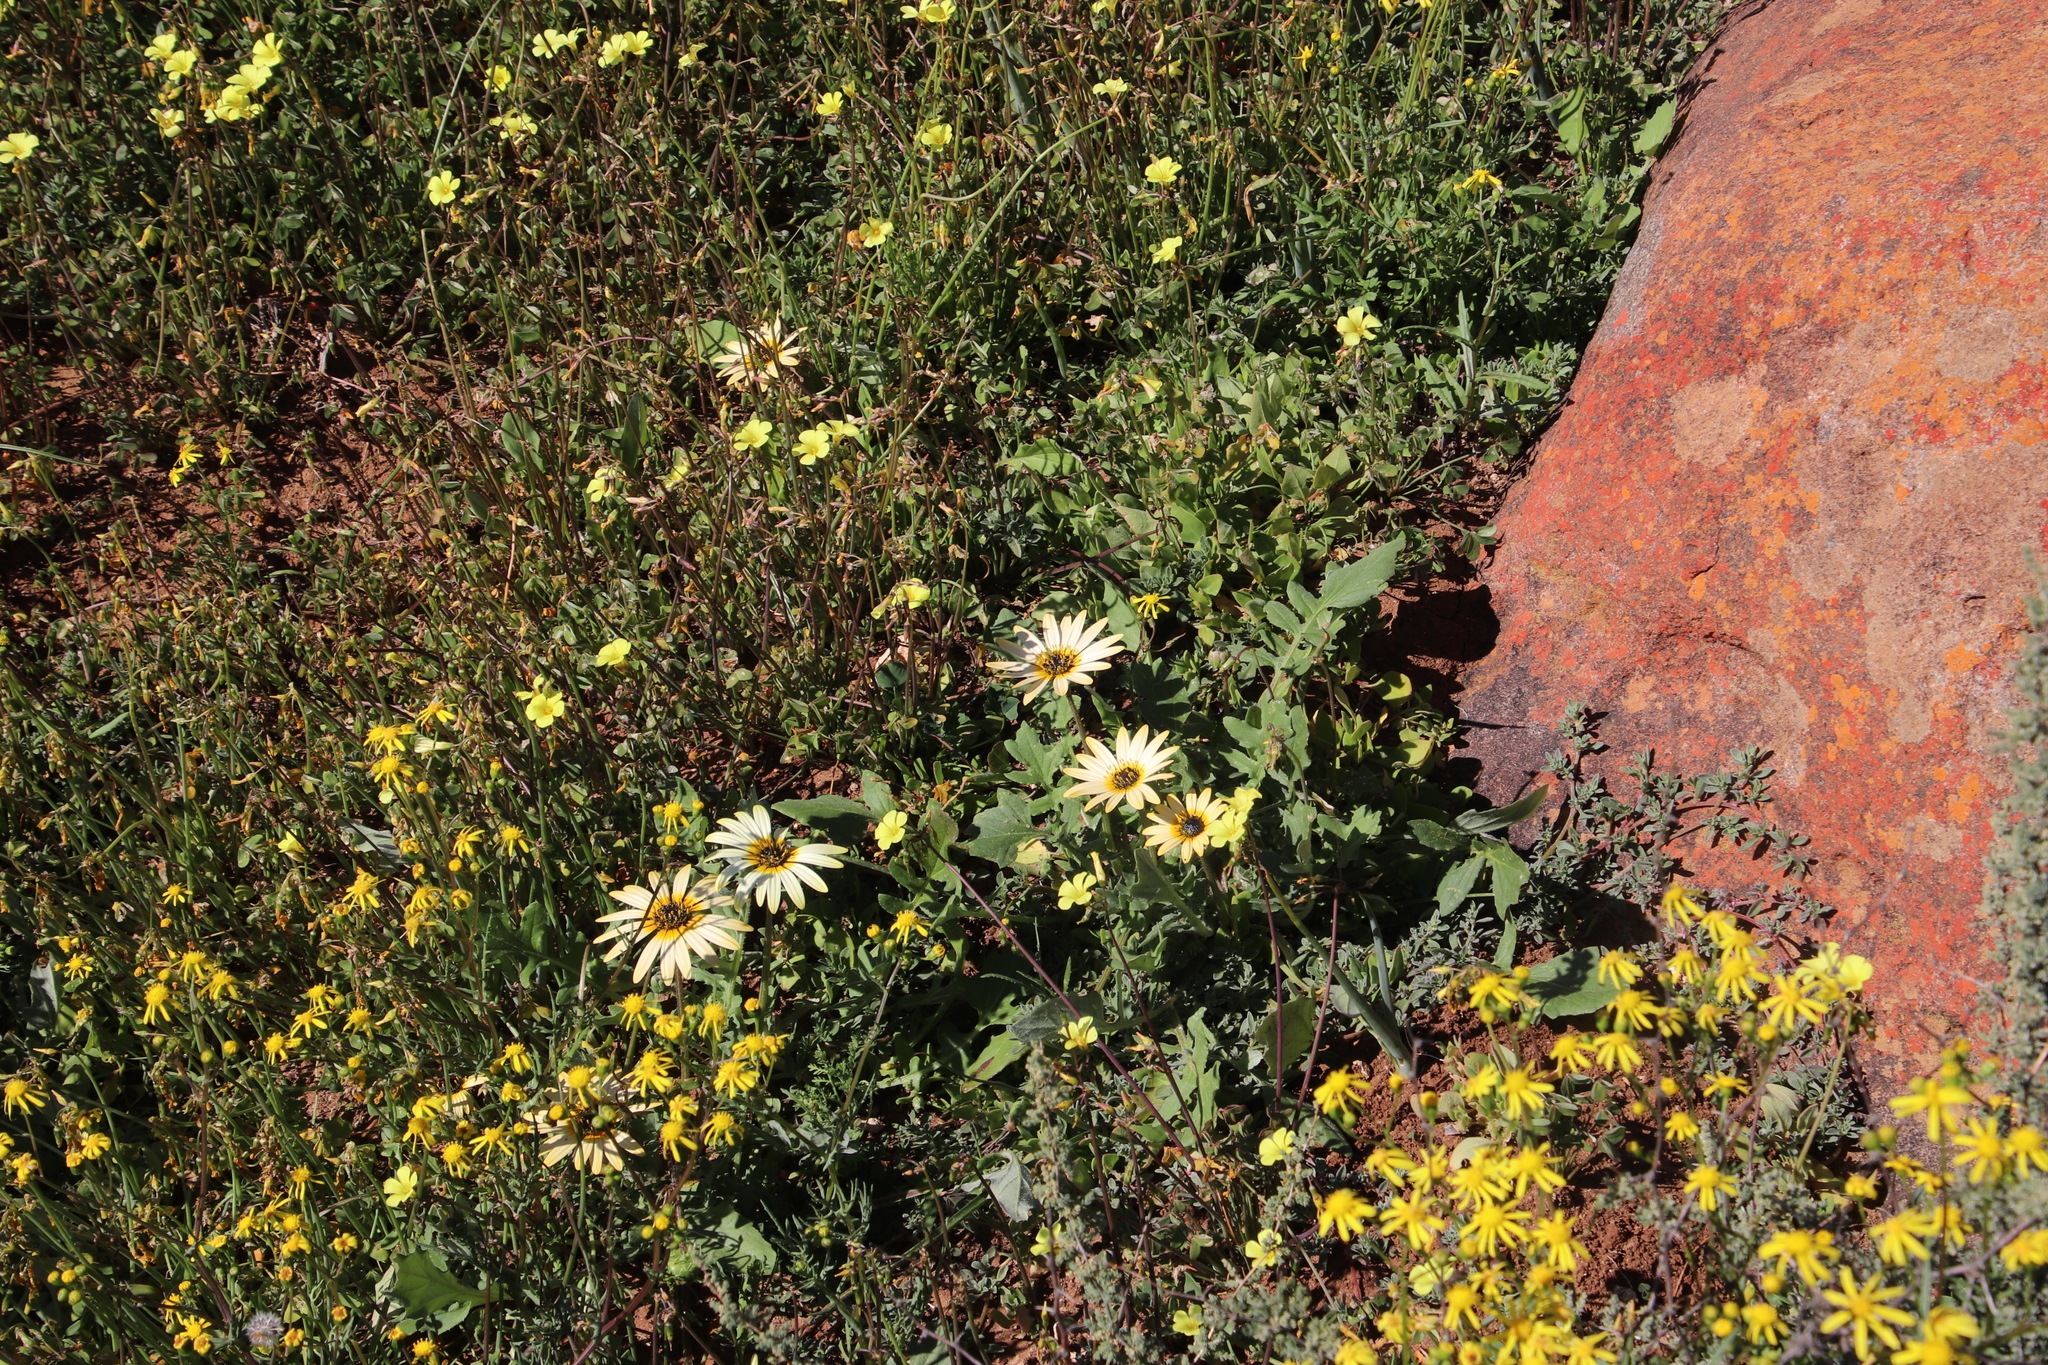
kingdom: Plantae
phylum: Tracheophyta
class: Magnoliopsida
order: Asterales
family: Asteraceae
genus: Arctotheca
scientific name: Arctotheca calendula
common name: Capeweed
